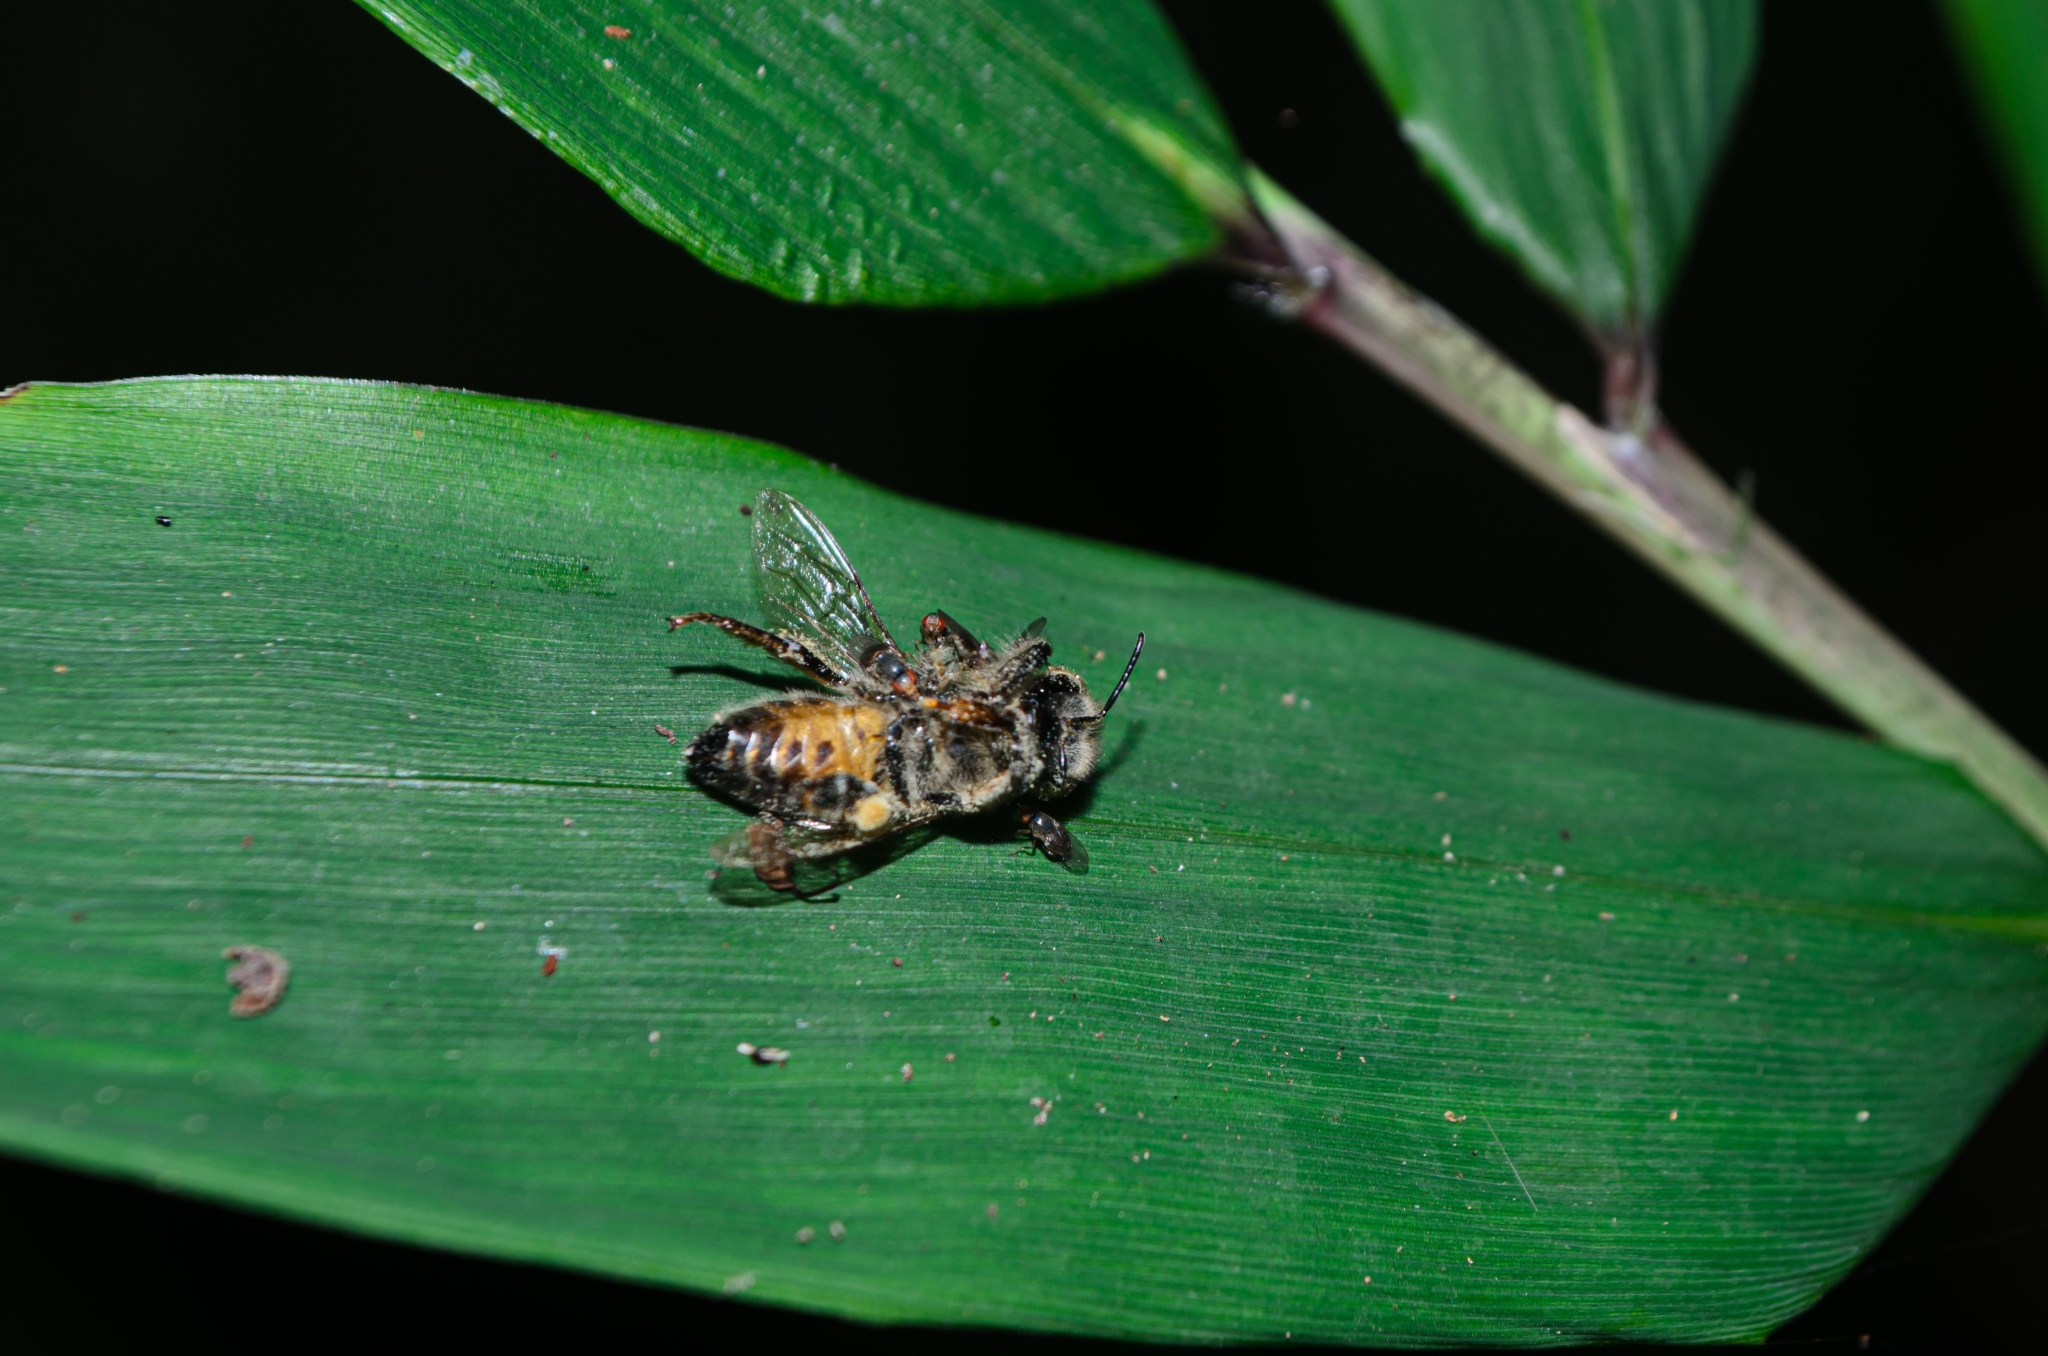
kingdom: Animalia
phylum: Arthropoda
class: Insecta
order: Hymenoptera
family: Apidae
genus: Apis
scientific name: Apis mellifera
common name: Honey bee
